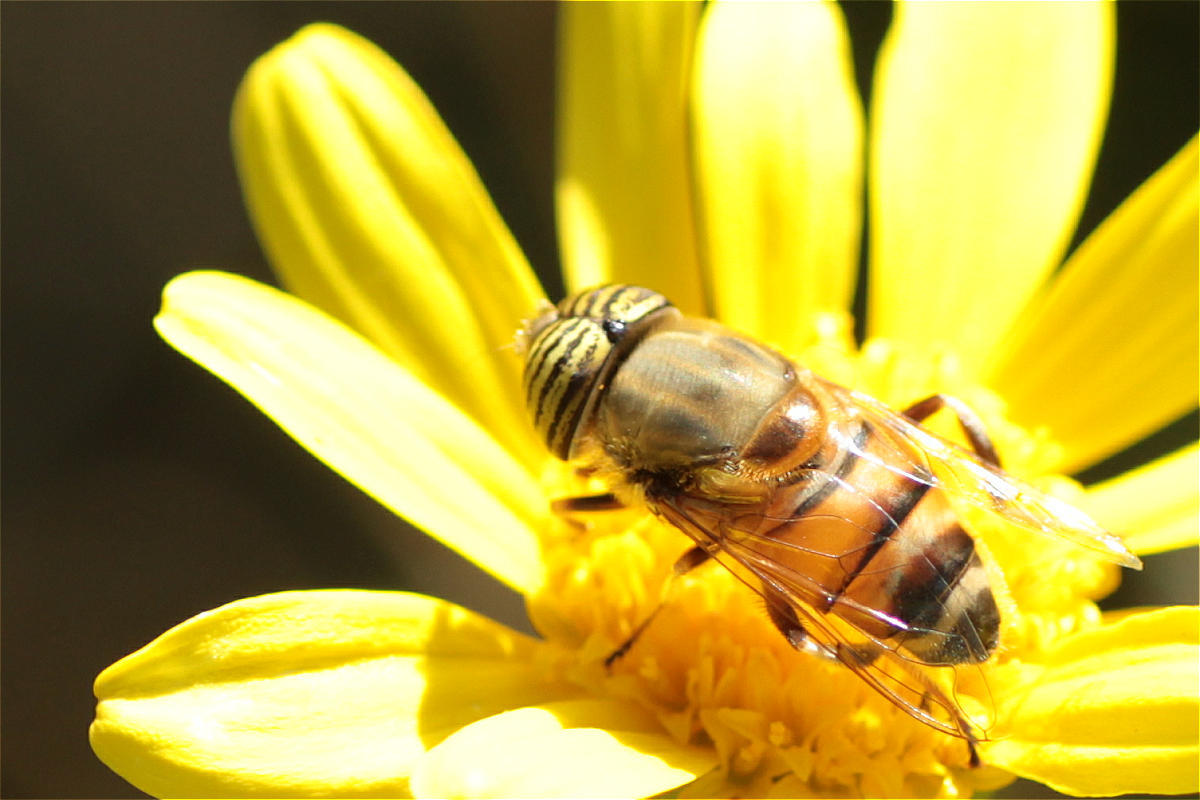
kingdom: Animalia
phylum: Arthropoda
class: Insecta
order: Diptera
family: Syrphidae
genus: Eristalinus
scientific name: Eristalinus taeniops
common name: Syrphid fly
